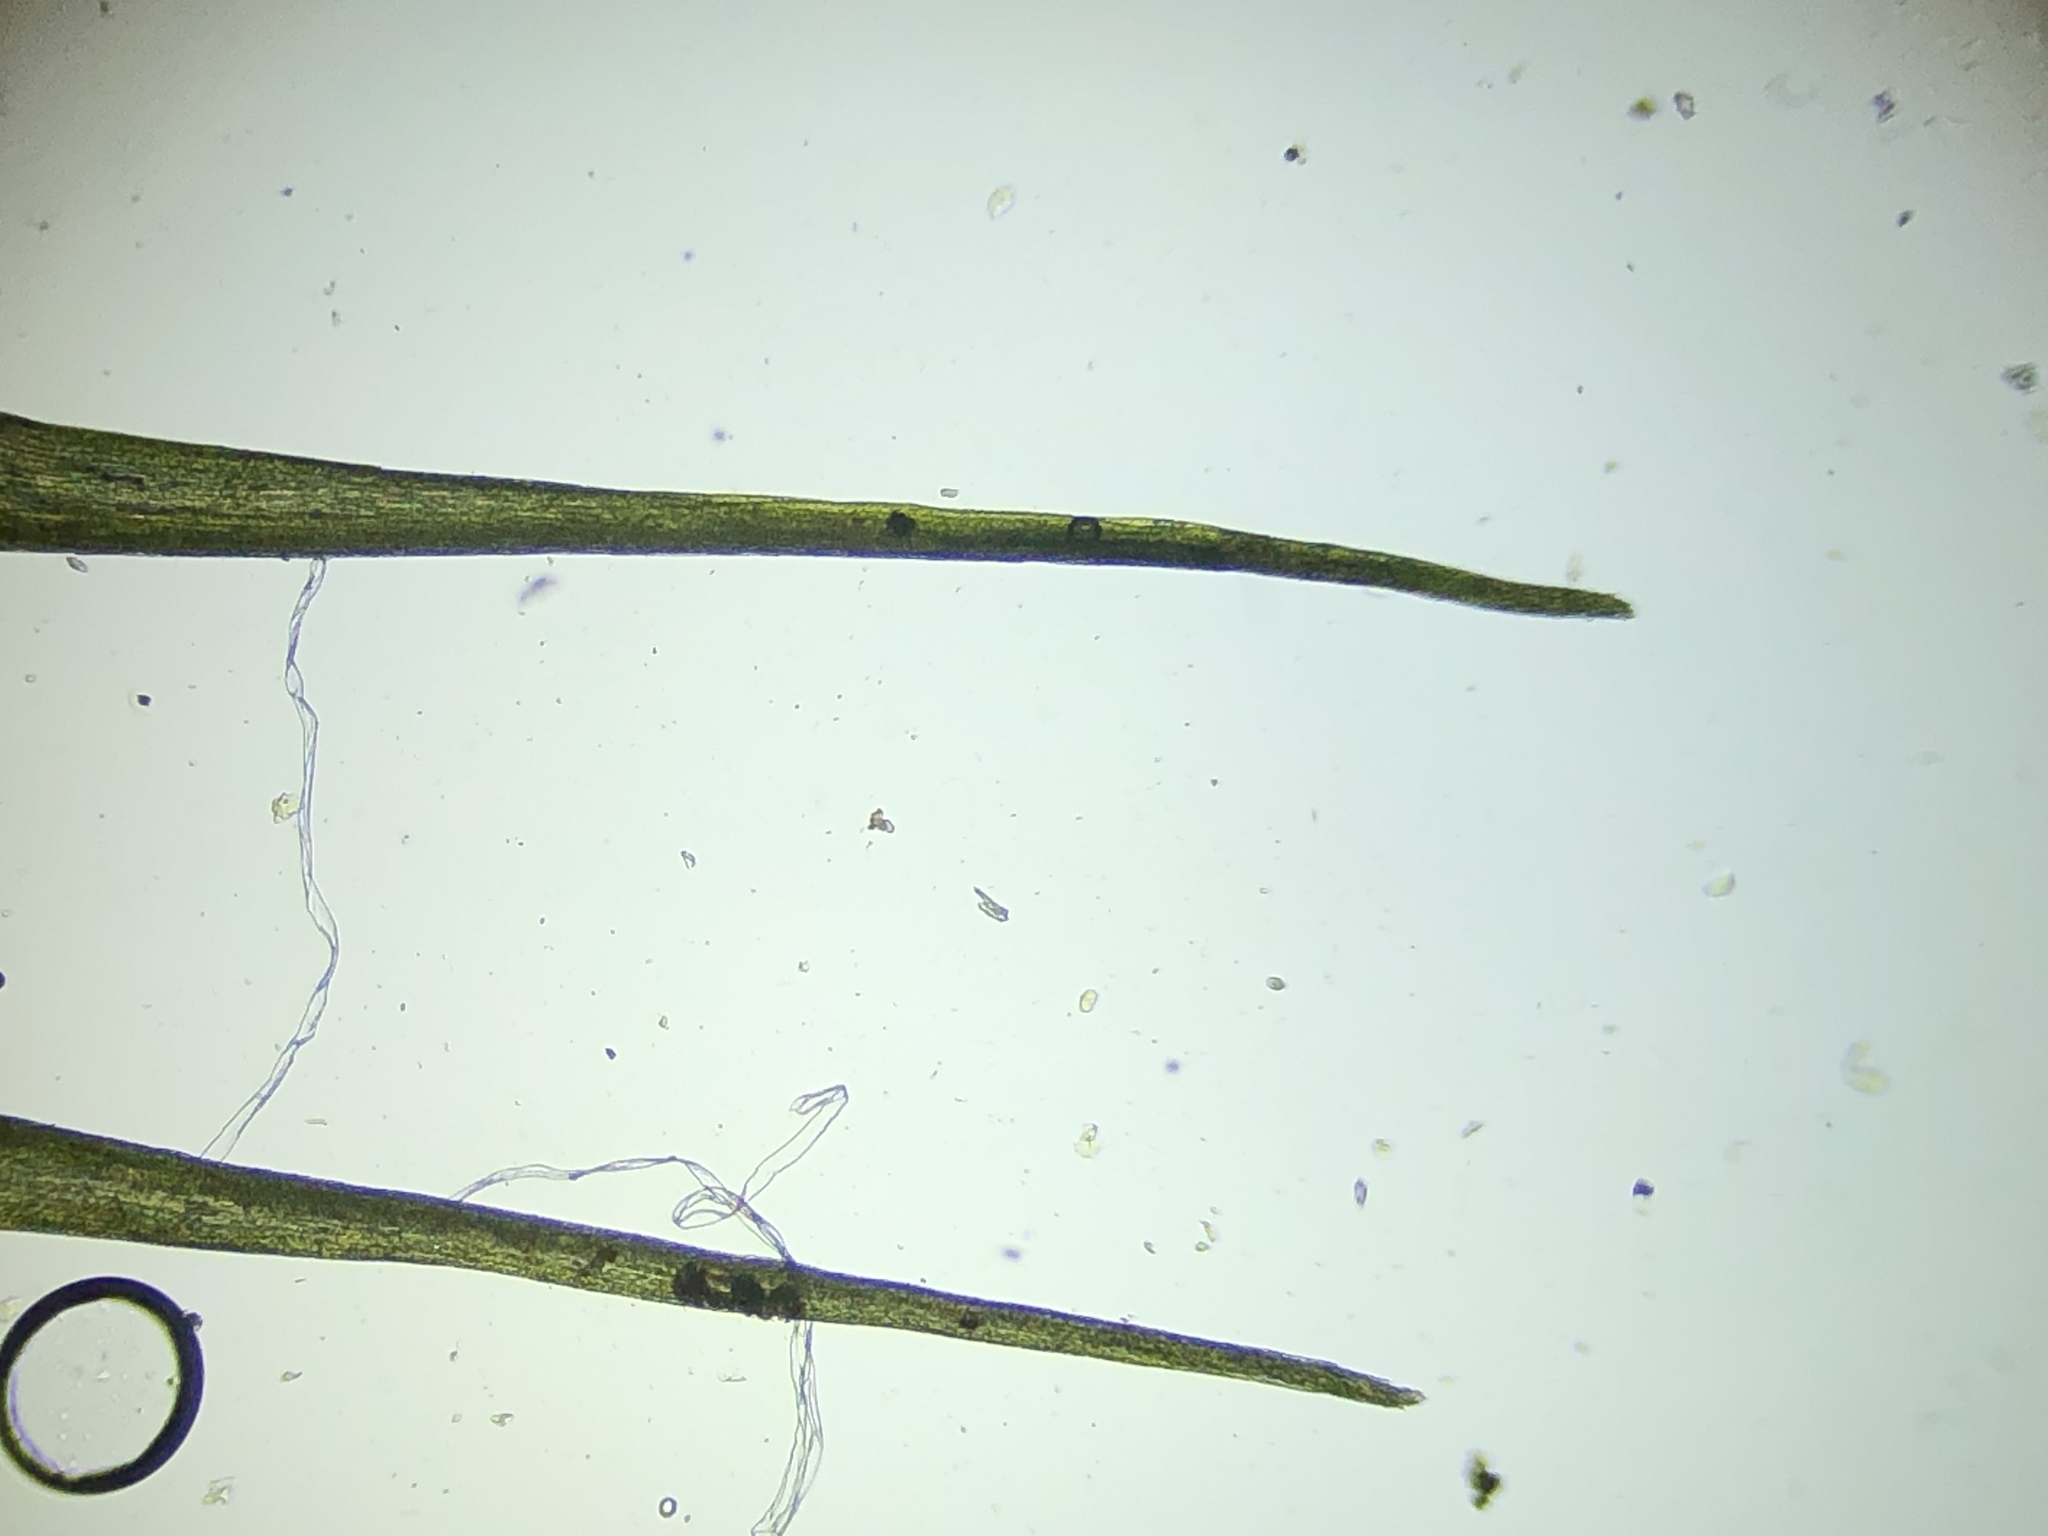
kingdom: Plantae
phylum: Bryophyta
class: Bryopsida
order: Dicranales
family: Leucobryaceae
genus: Campylopus
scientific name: Campylopus introflexus
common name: Heath star moss
